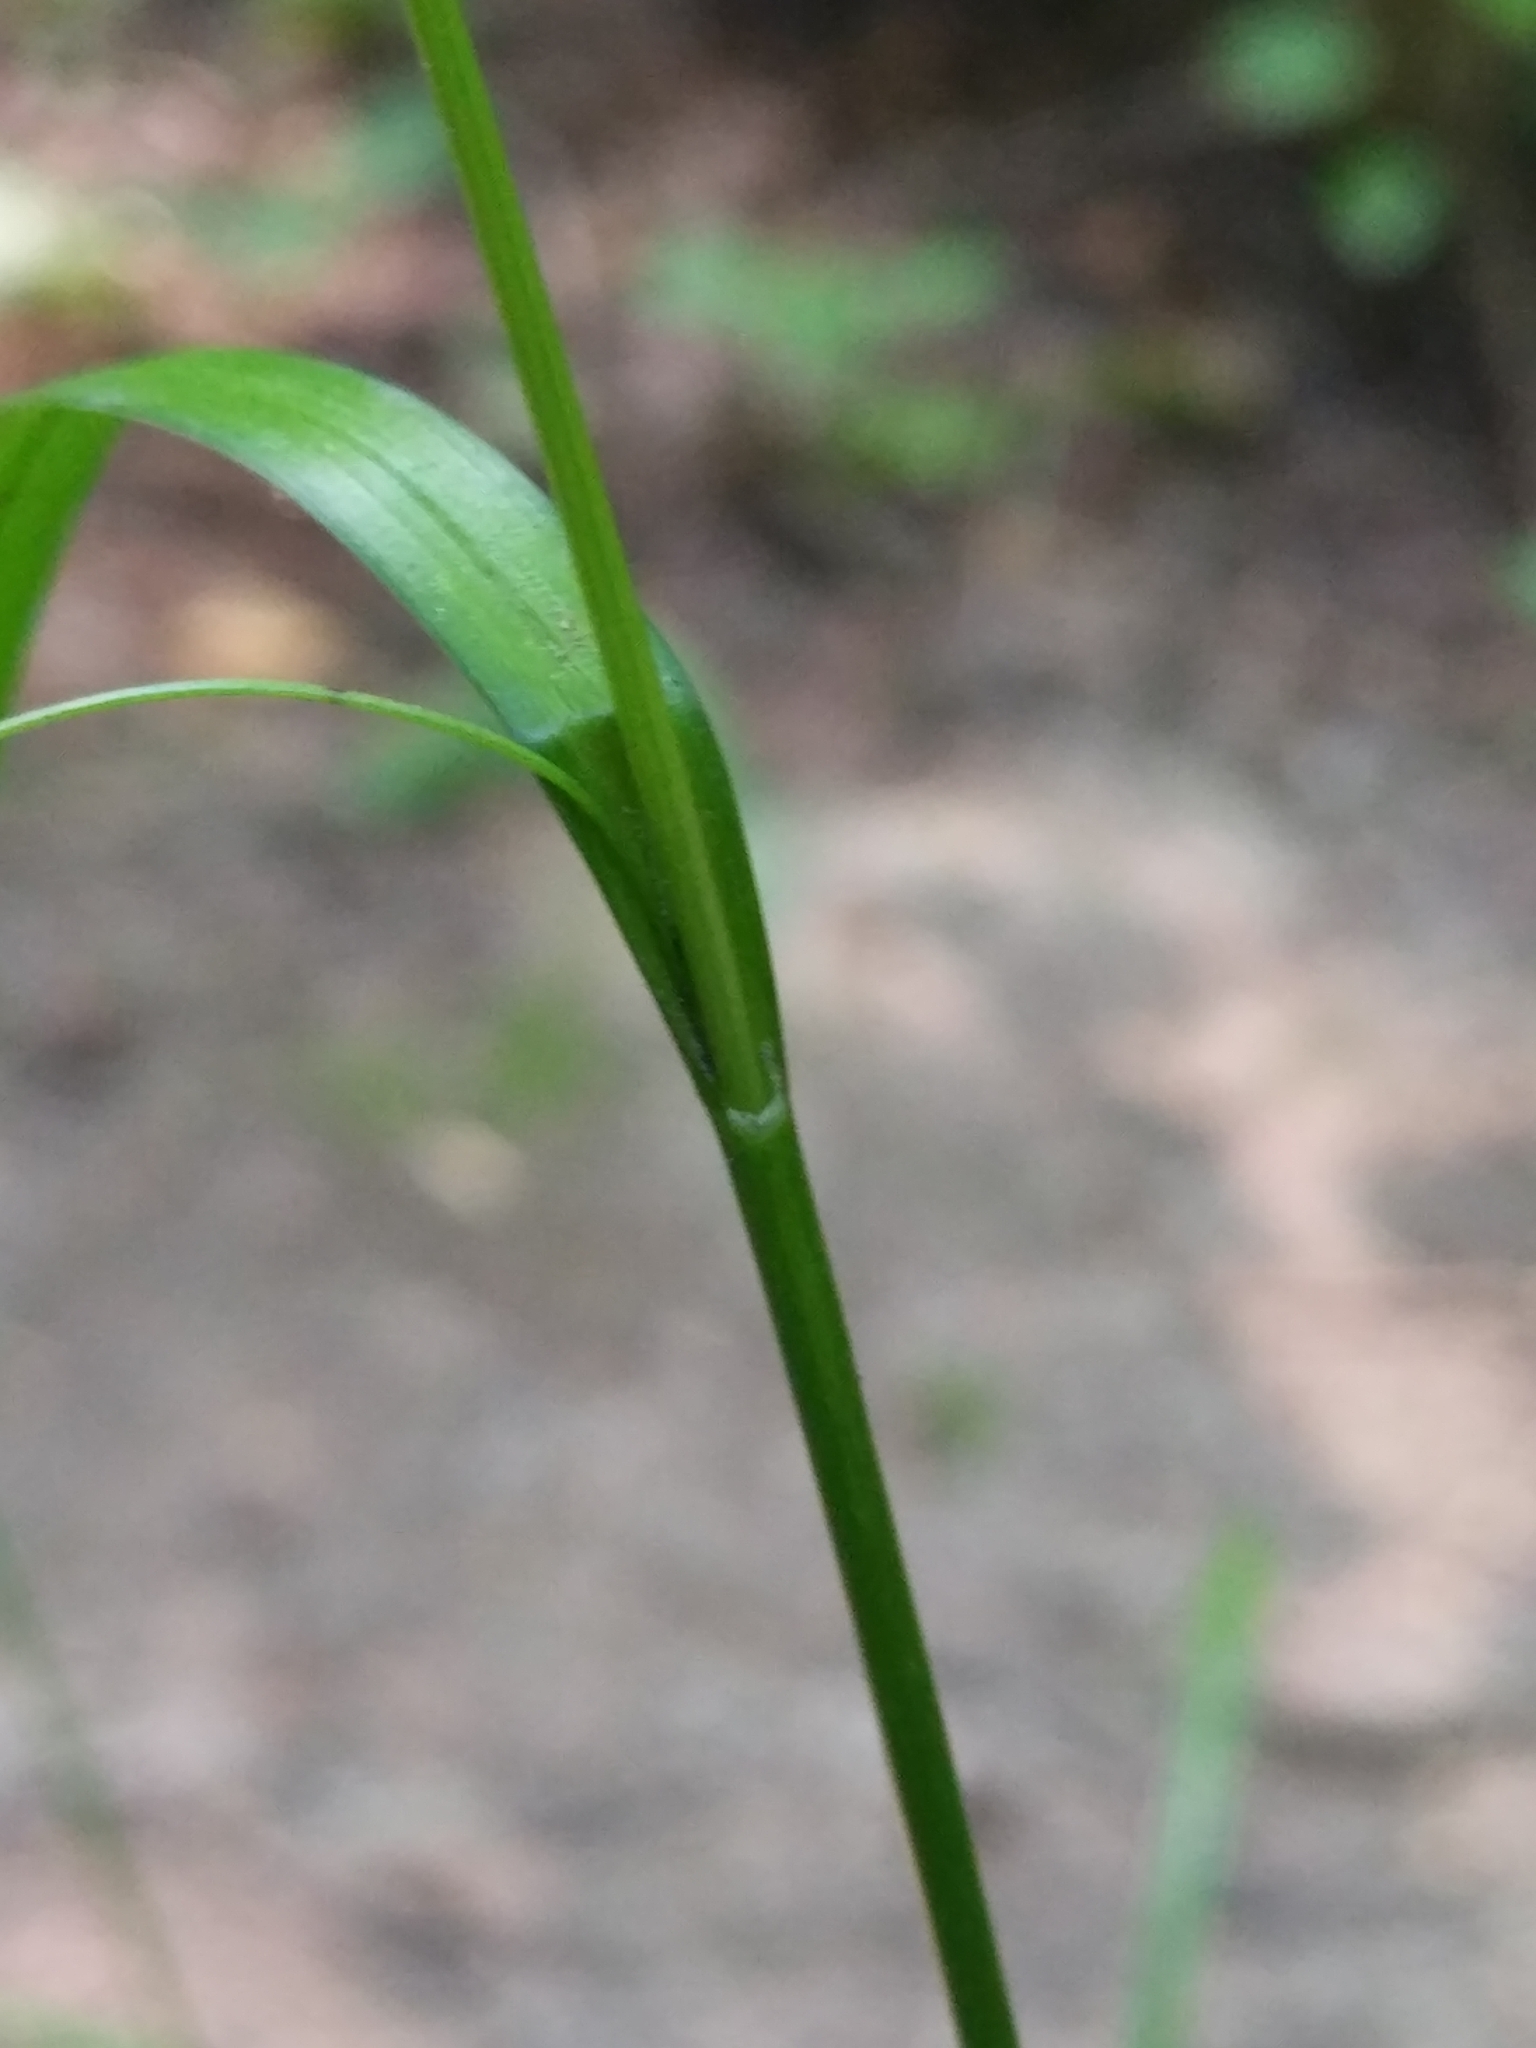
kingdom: Plantae
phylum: Tracheophyta
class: Liliopsida
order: Poales
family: Cyperaceae
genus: Carex
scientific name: Carex sylvatica
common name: Wood-sedge
